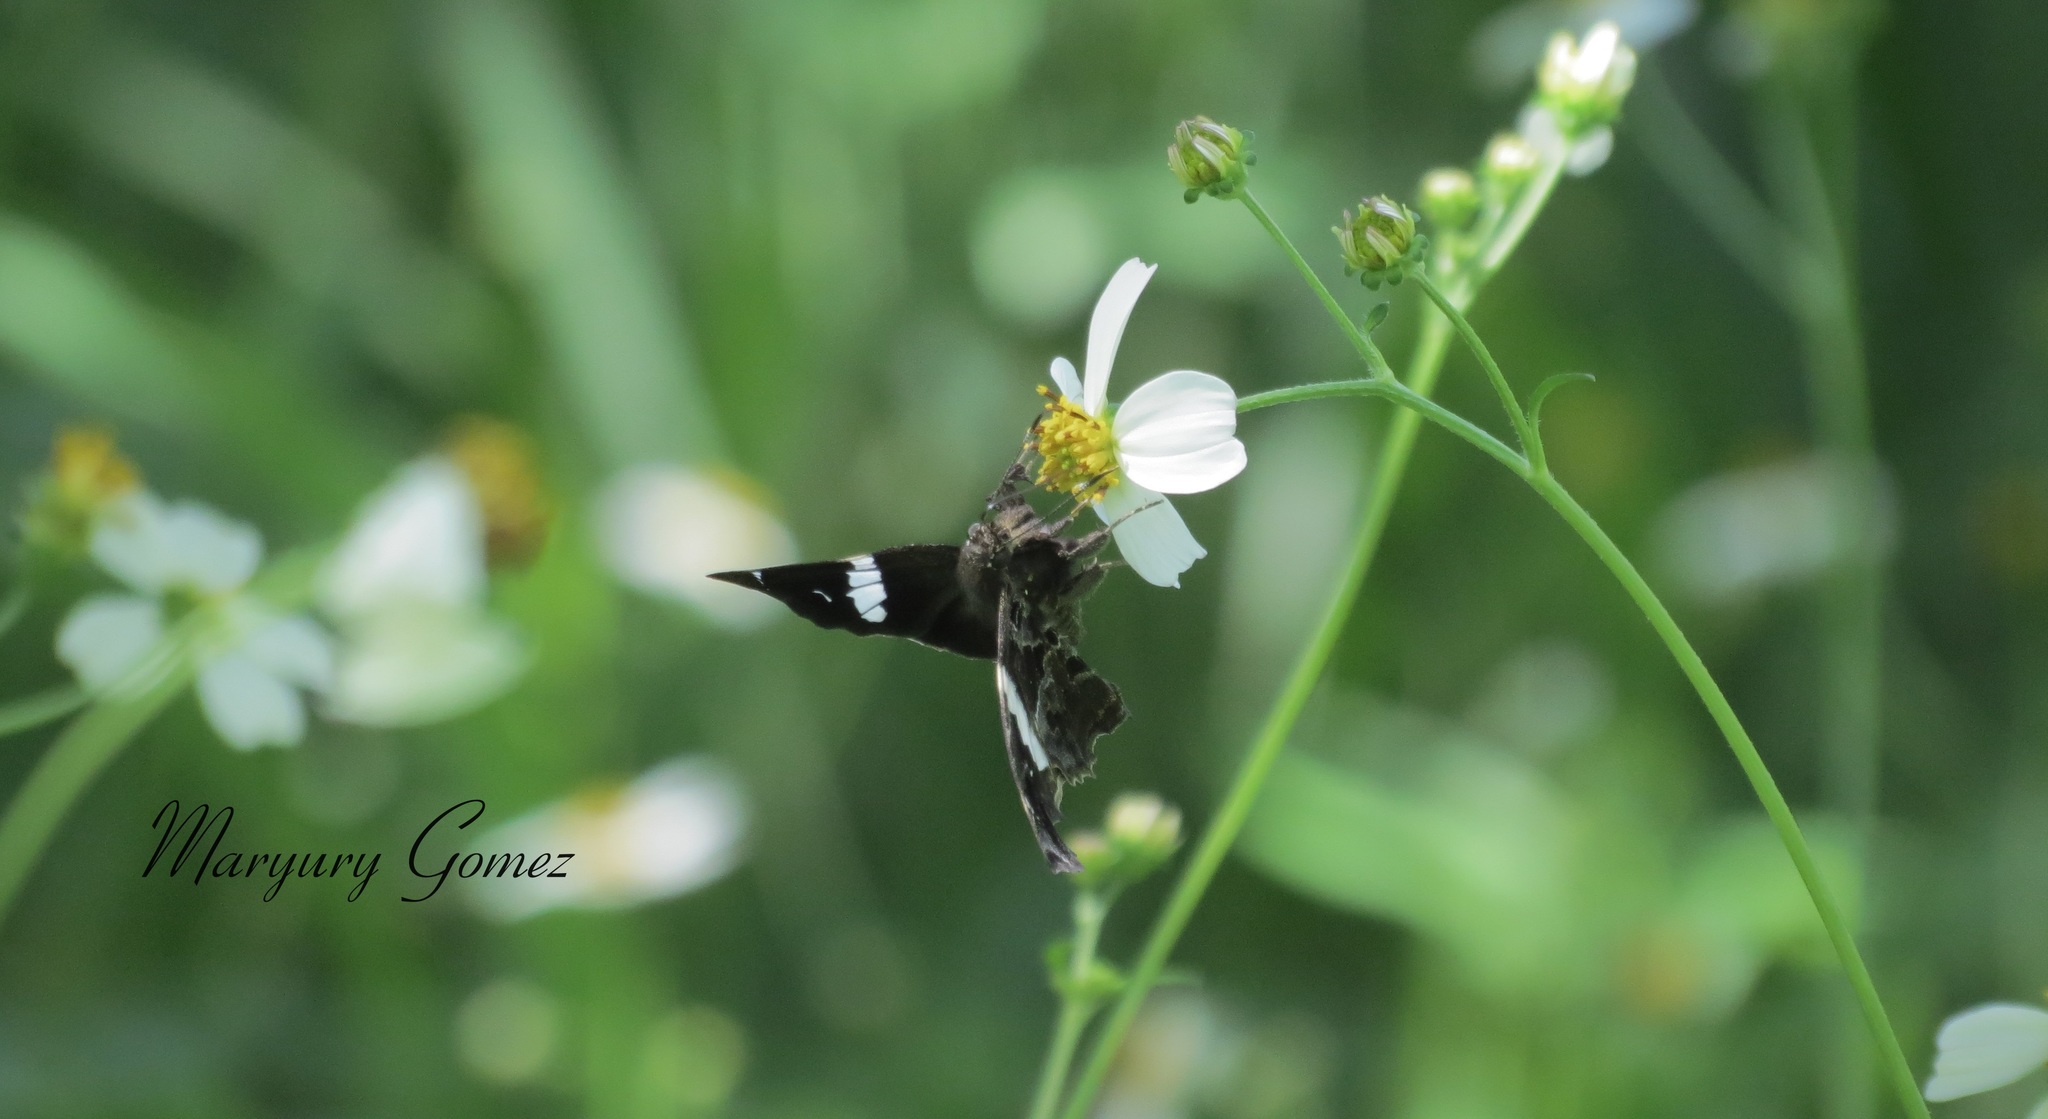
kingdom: Animalia
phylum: Arthropoda
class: Insecta
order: Lepidoptera
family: Hesperiidae
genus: Spathilepia
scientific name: Spathilepia clonius
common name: Falcate skipper
